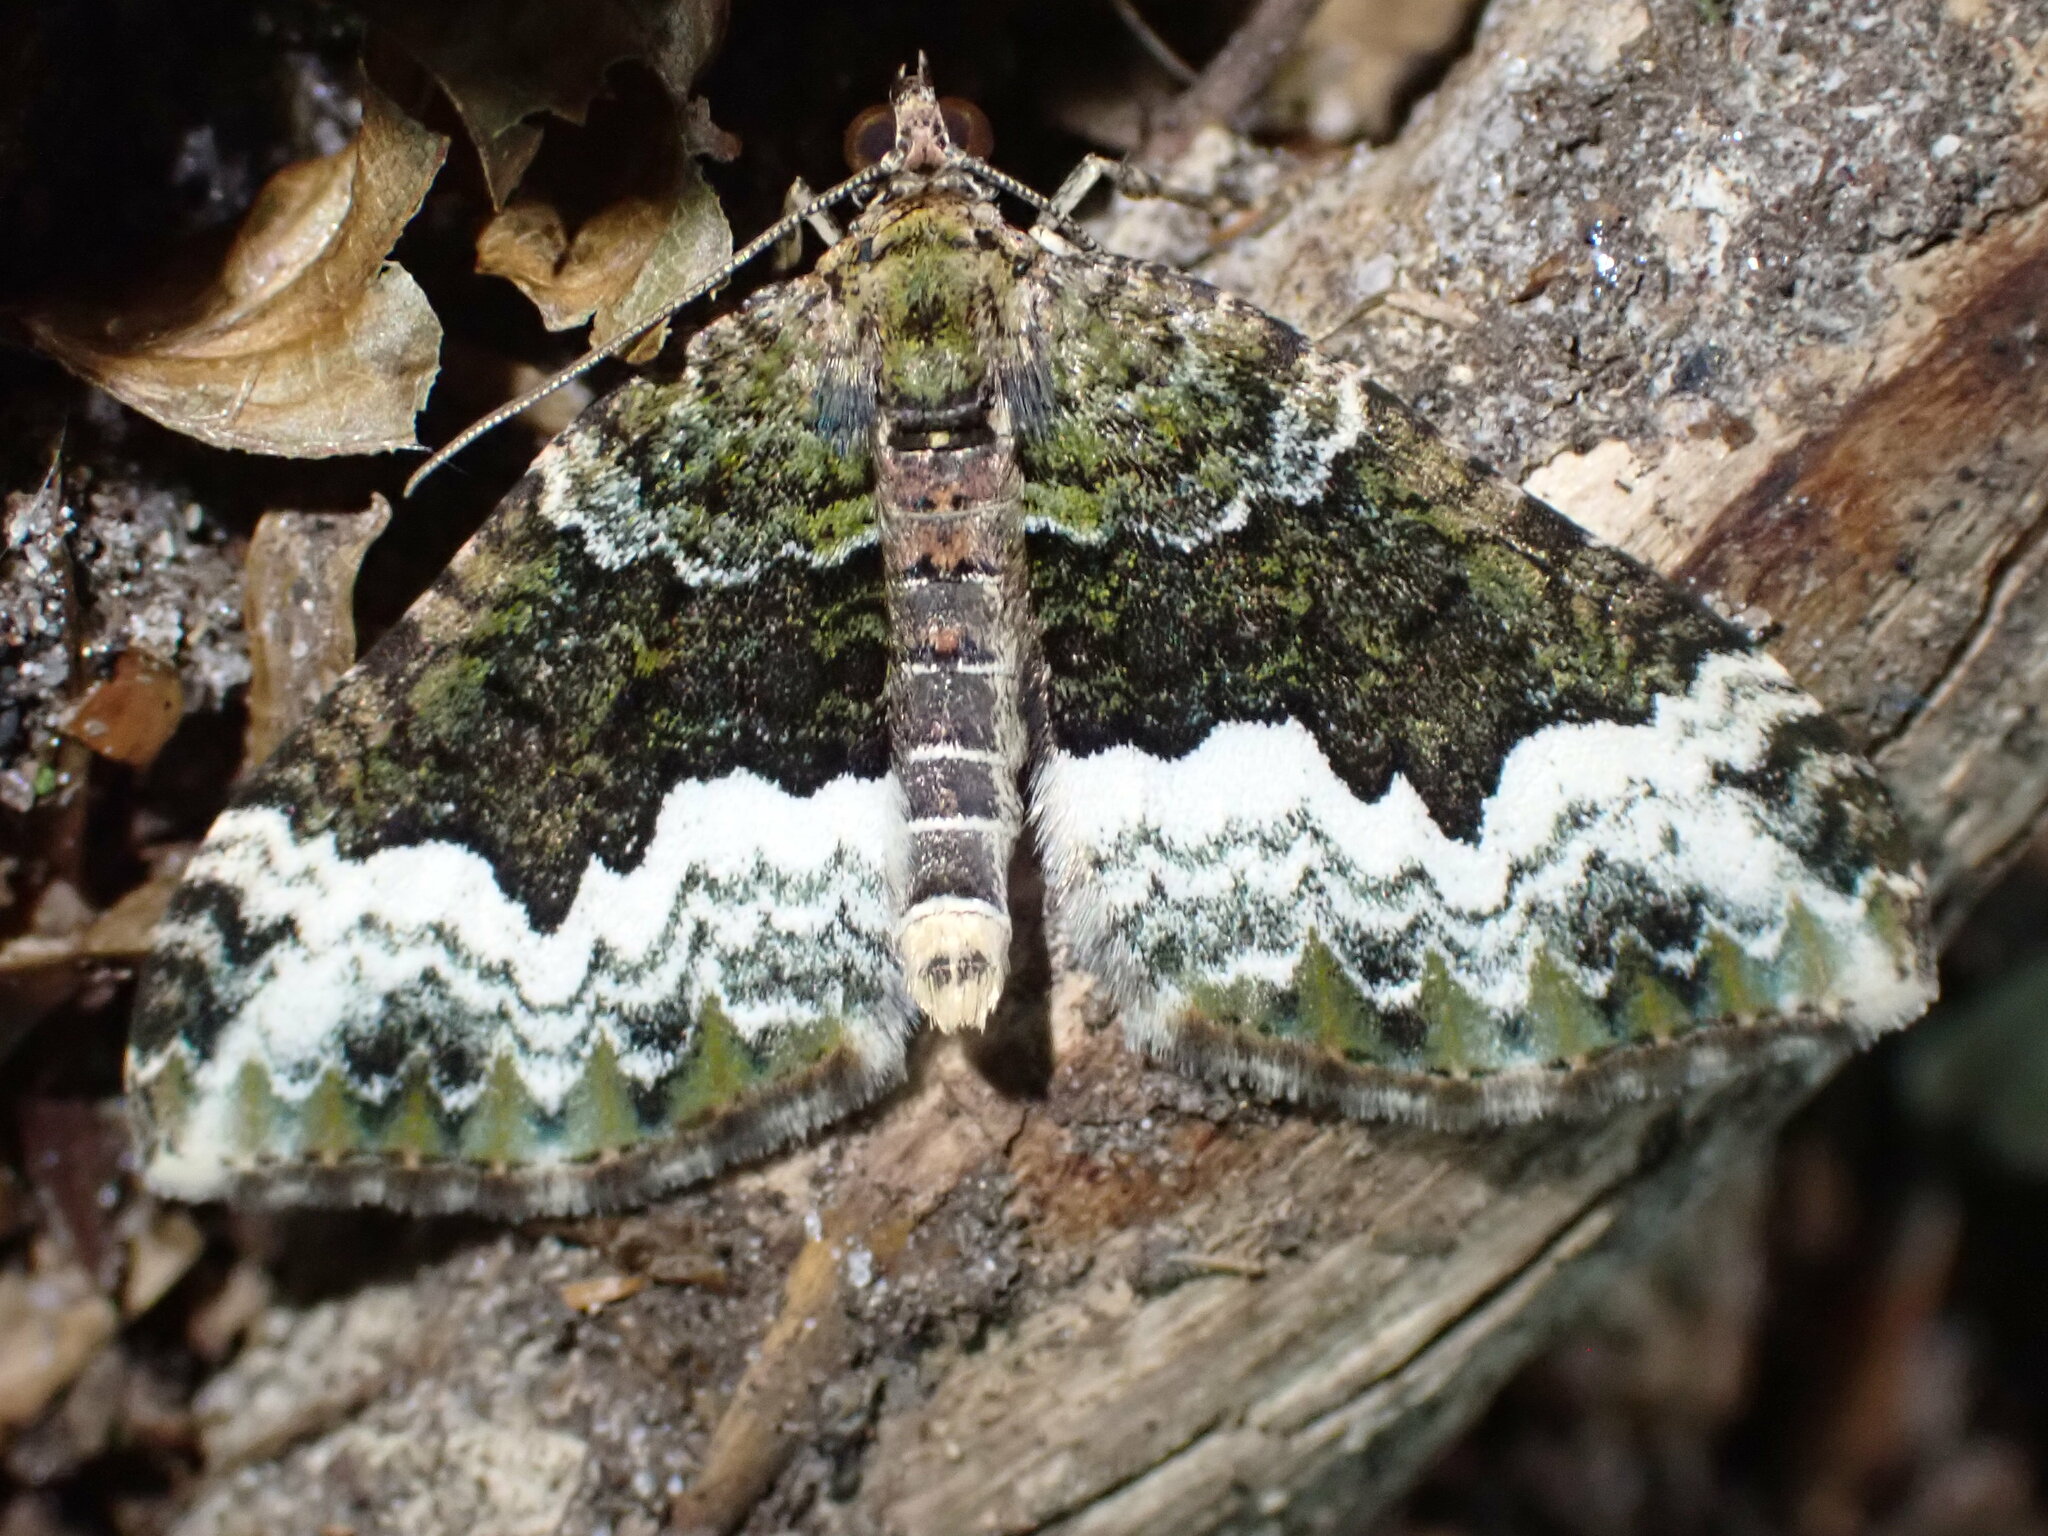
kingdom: Animalia
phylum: Arthropoda
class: Insecta
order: Lepidoptera
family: Geometridae
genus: Euphyia
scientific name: Euphyia biangulata
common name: Cloaked carpet
